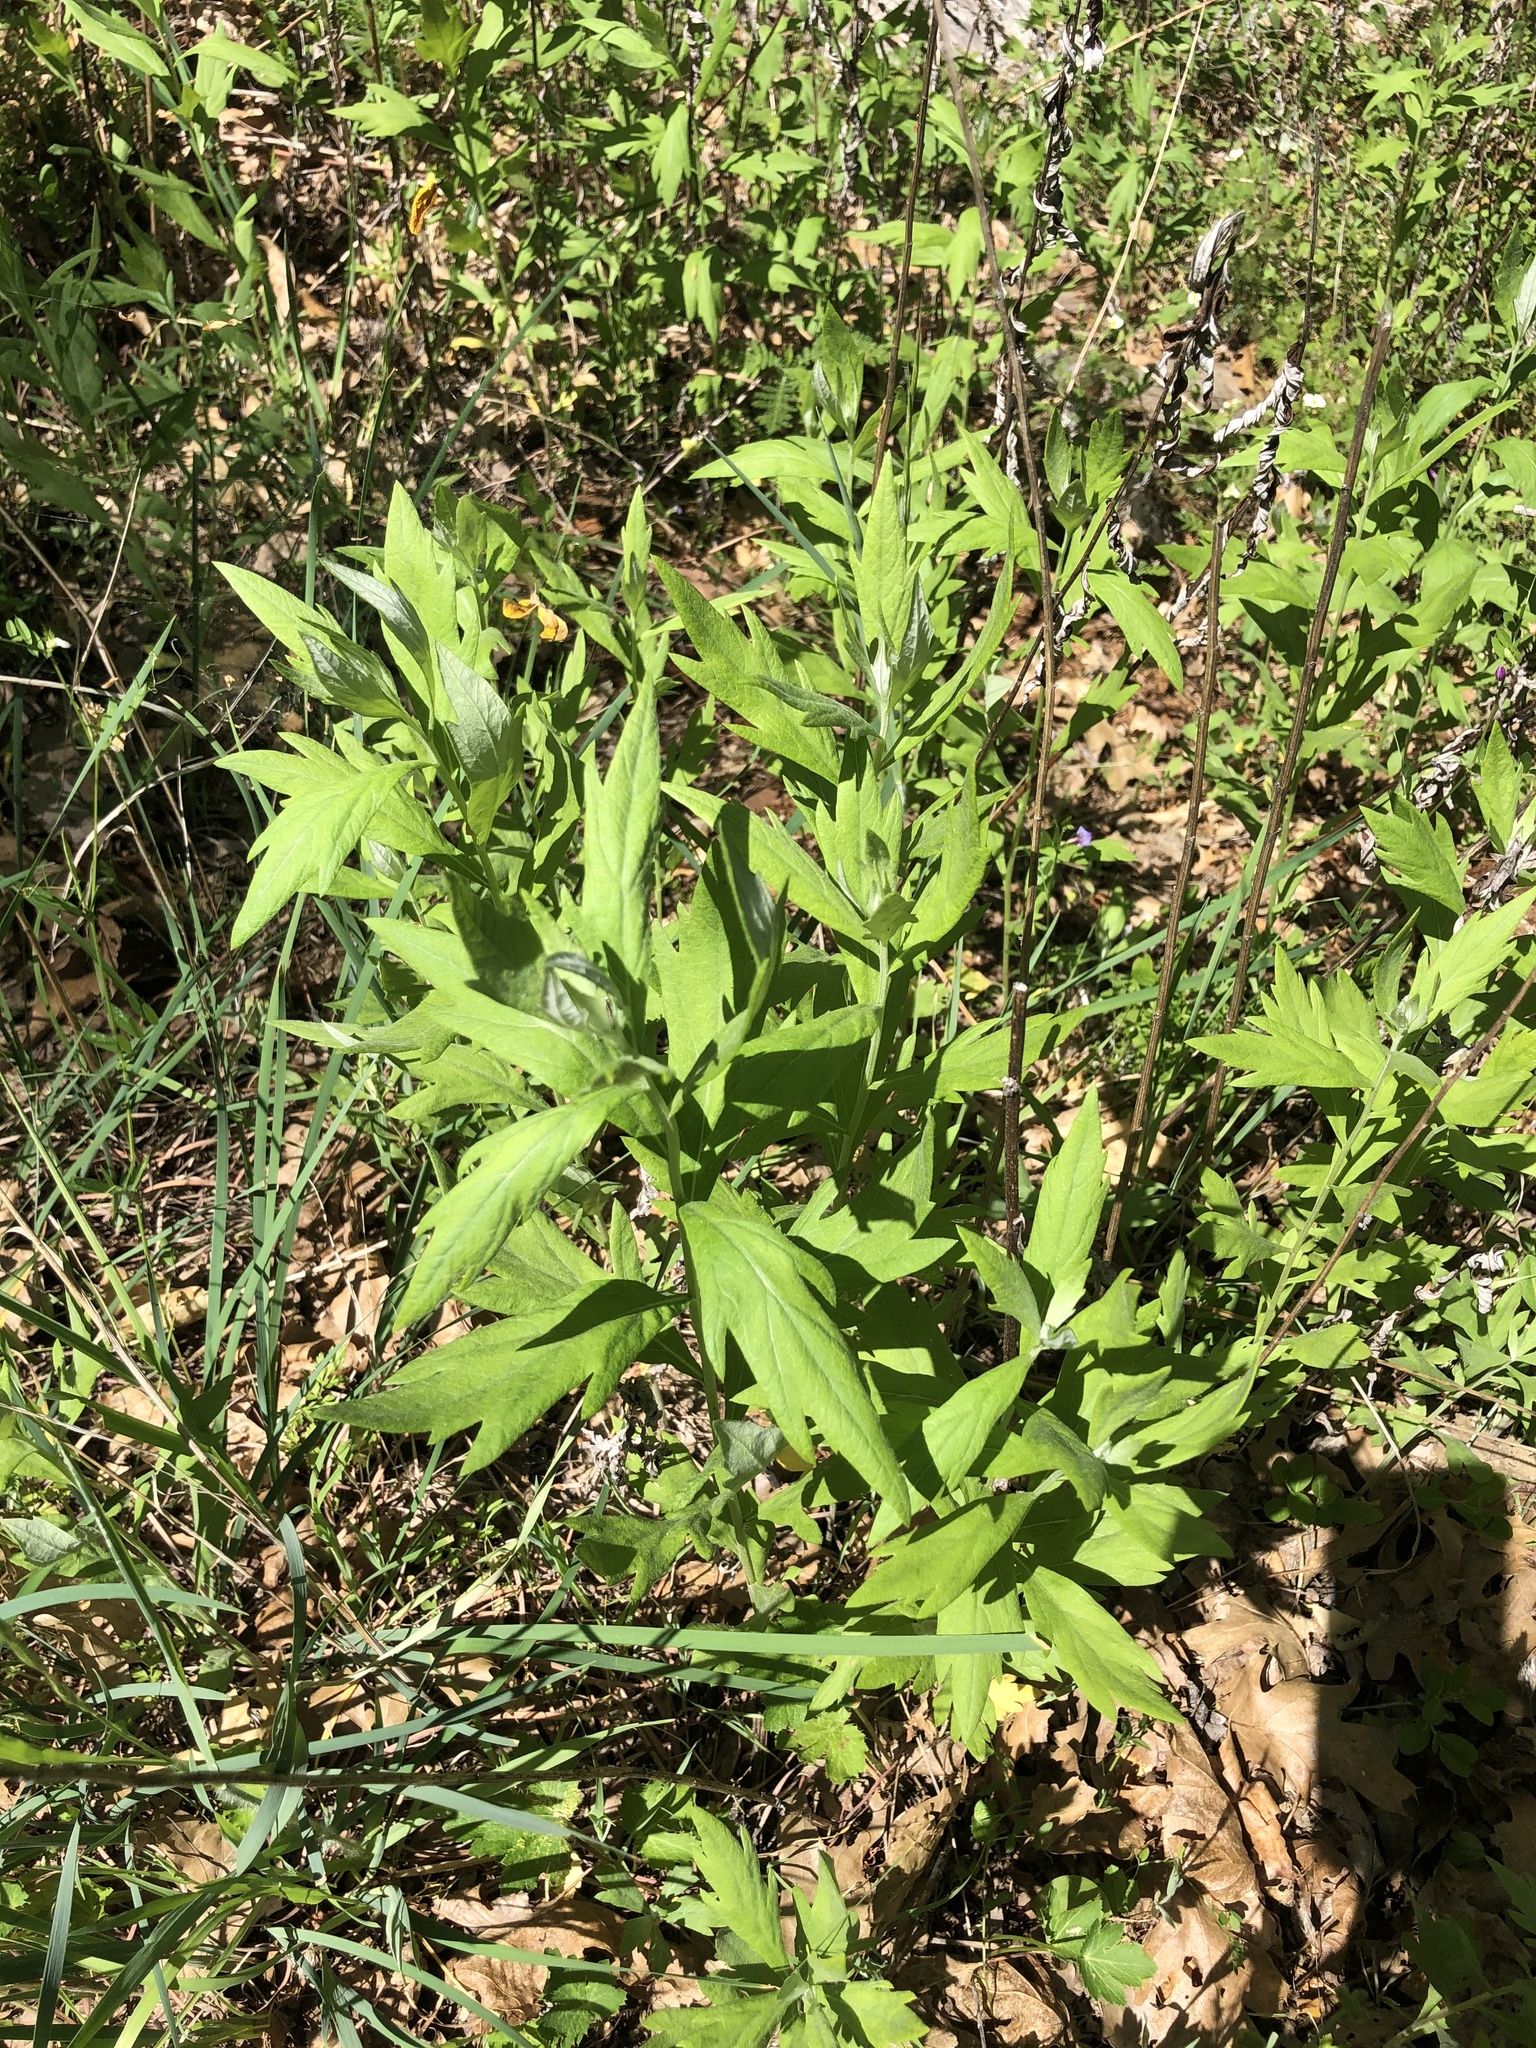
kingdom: Plantae
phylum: Tracheophyta
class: Magnoliopsida
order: Asterales
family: Asteraceae
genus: Artemisia
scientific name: Artemisia douglasiana
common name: Northwest mugwort
